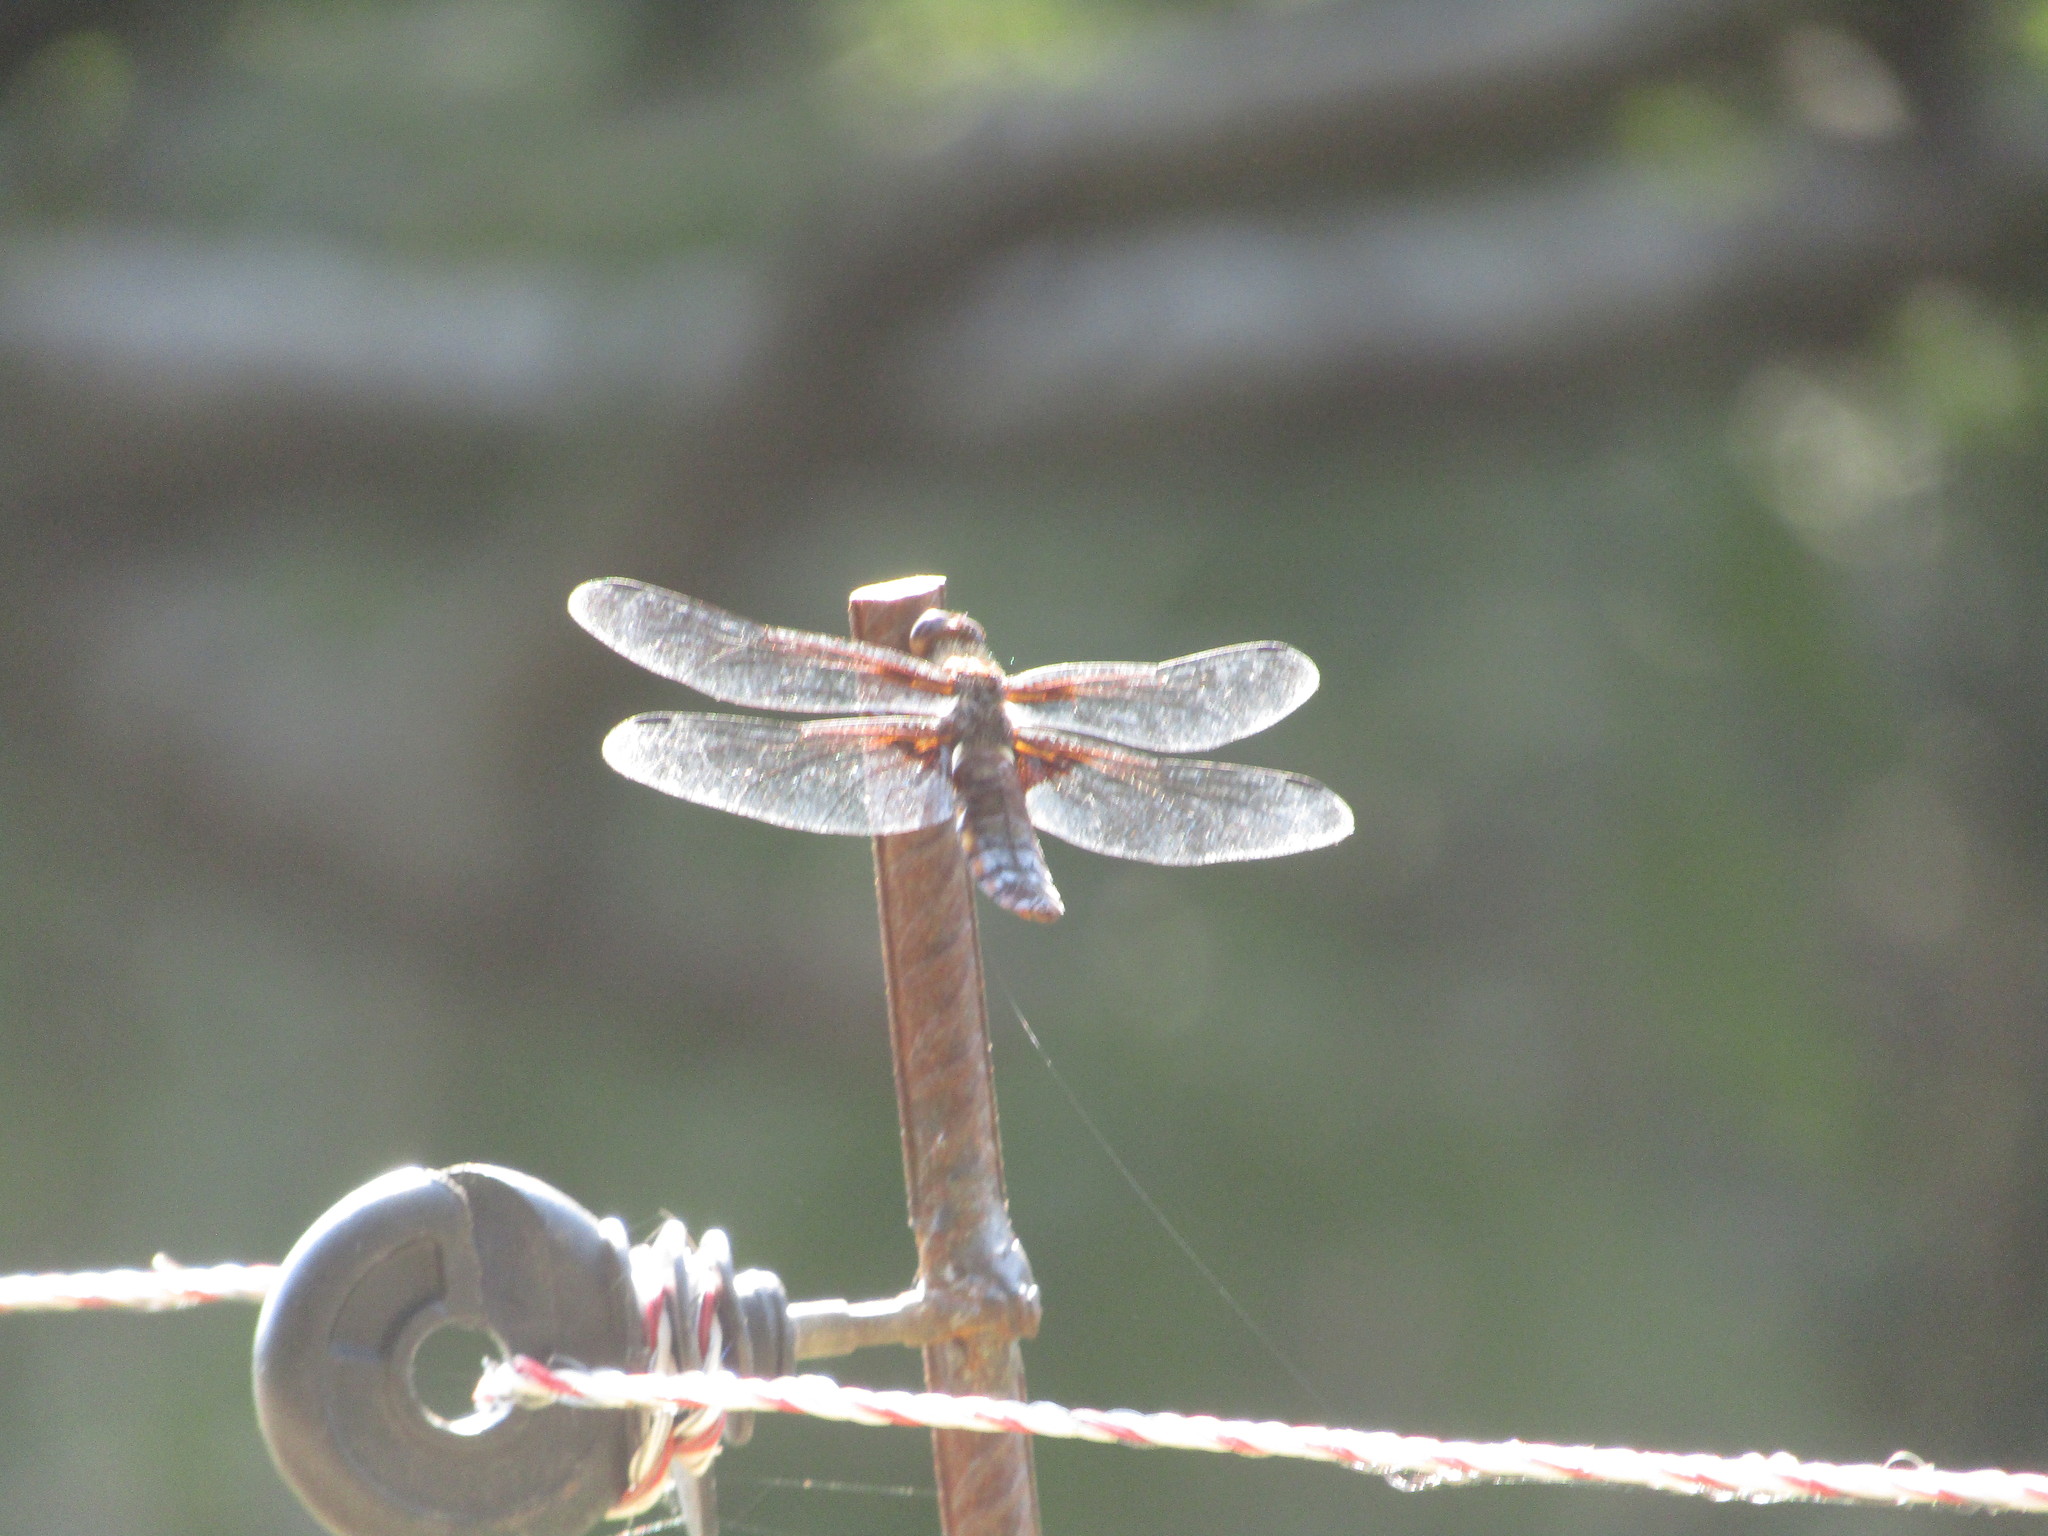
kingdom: Animalia
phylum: Arthropoda
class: Insecta
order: Odonata
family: Libellulidae
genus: Libellula
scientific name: Libellula depressa
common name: Broad-bodied chaser
